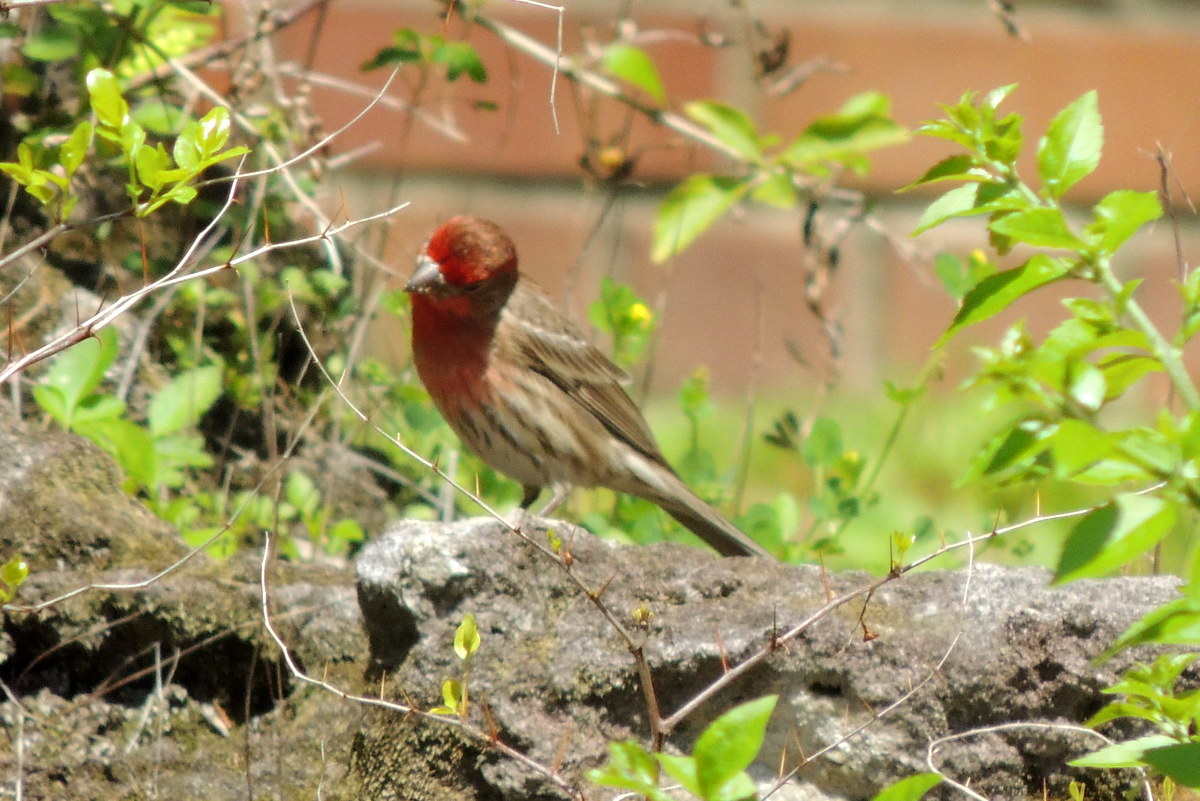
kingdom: Animalia
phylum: Chordata
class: Aves
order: Passeriformes
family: Fringillidae
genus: Haemorhous
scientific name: Haemorhous mexicanus
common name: House finch
